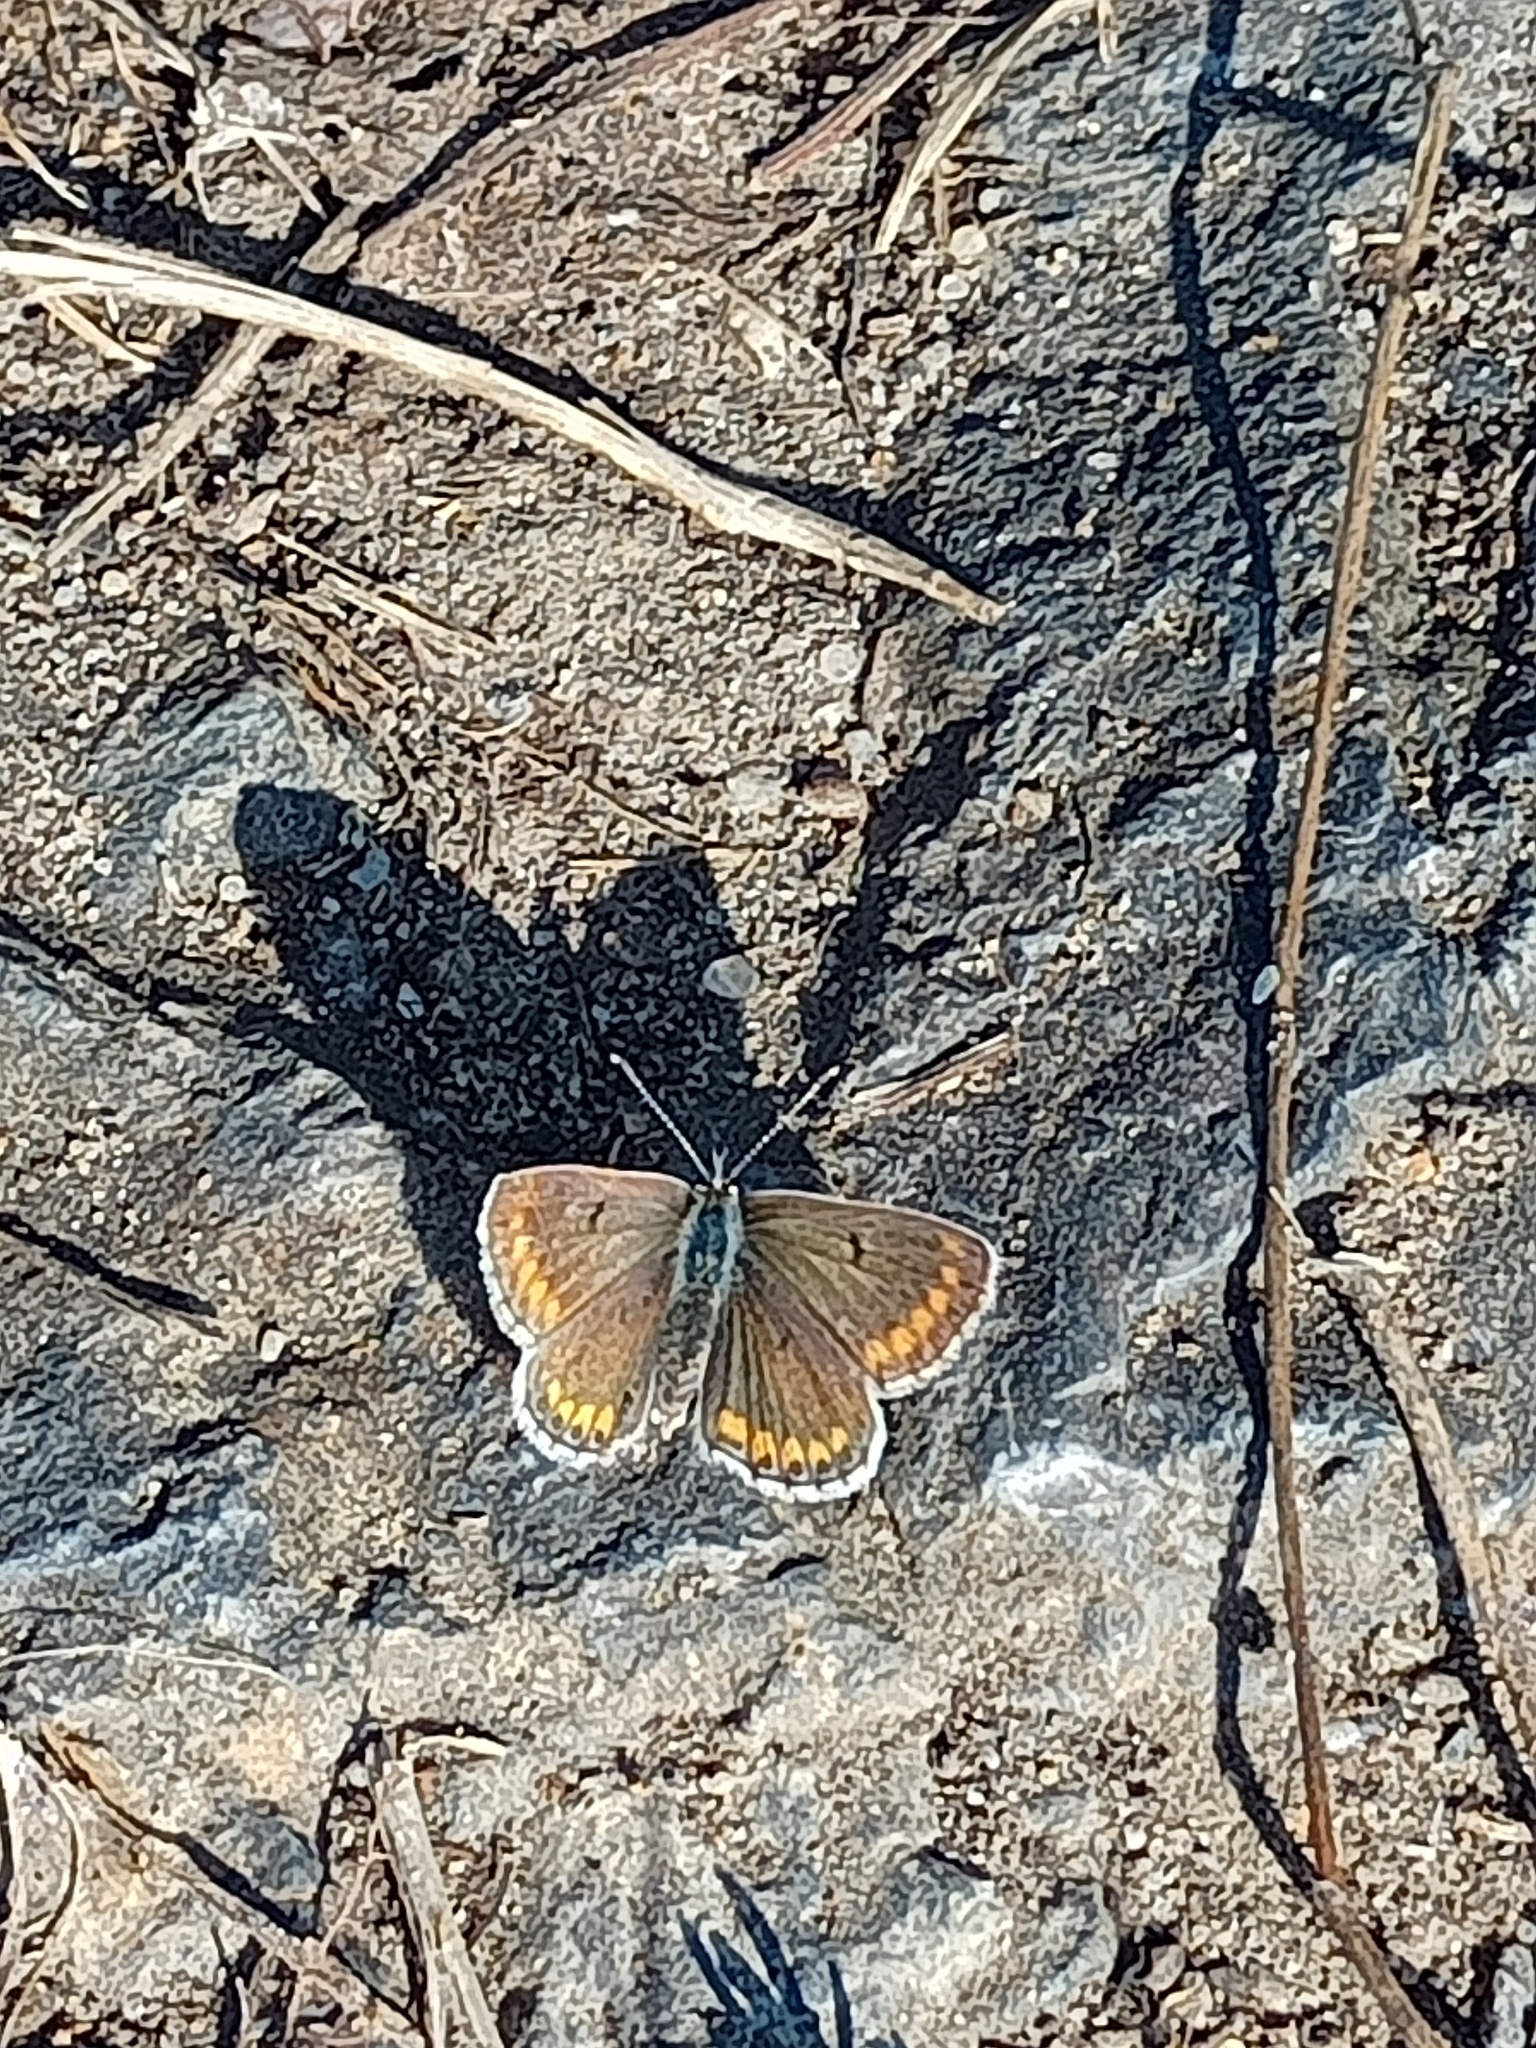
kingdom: Animalia
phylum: Arthropoda
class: Insecta
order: Lepidoptera
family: Lycaenidae
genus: Aricia
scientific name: Aricia agestis
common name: Brown argus
